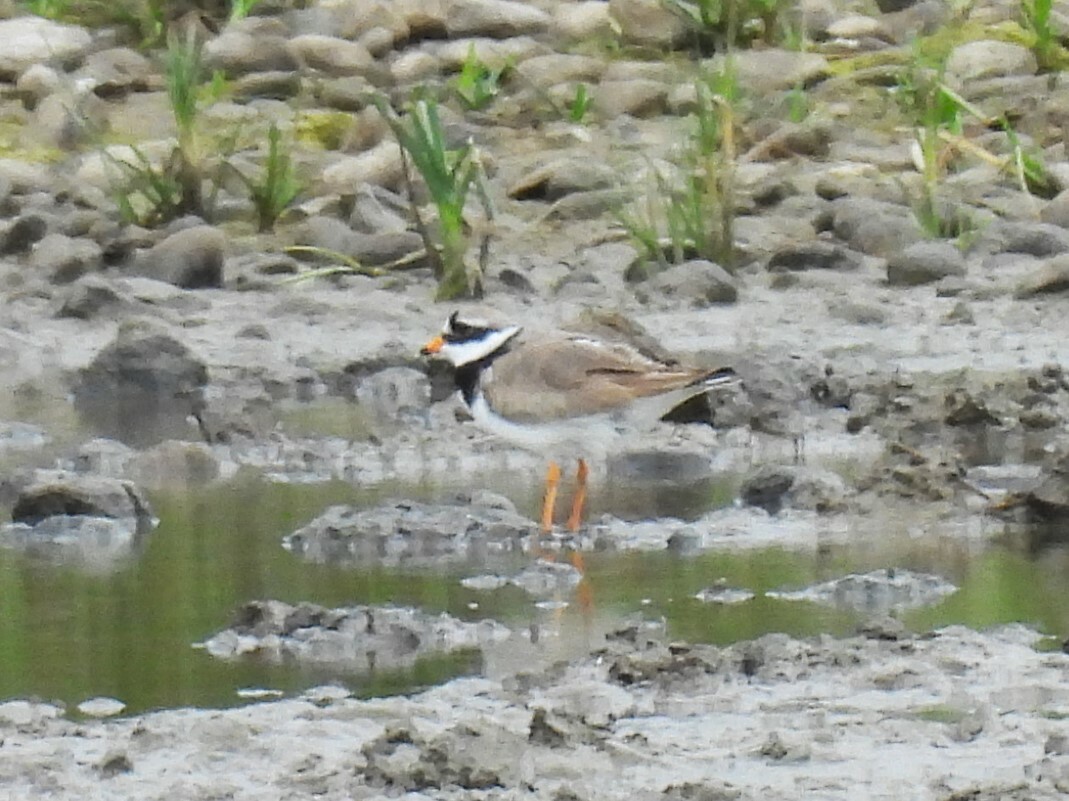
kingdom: Animalia
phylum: Chordata
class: Aves
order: Charadriiformes
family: Charadriidae
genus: Charadrius
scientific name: Charadrius hiaticula
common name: Common ringed plover
